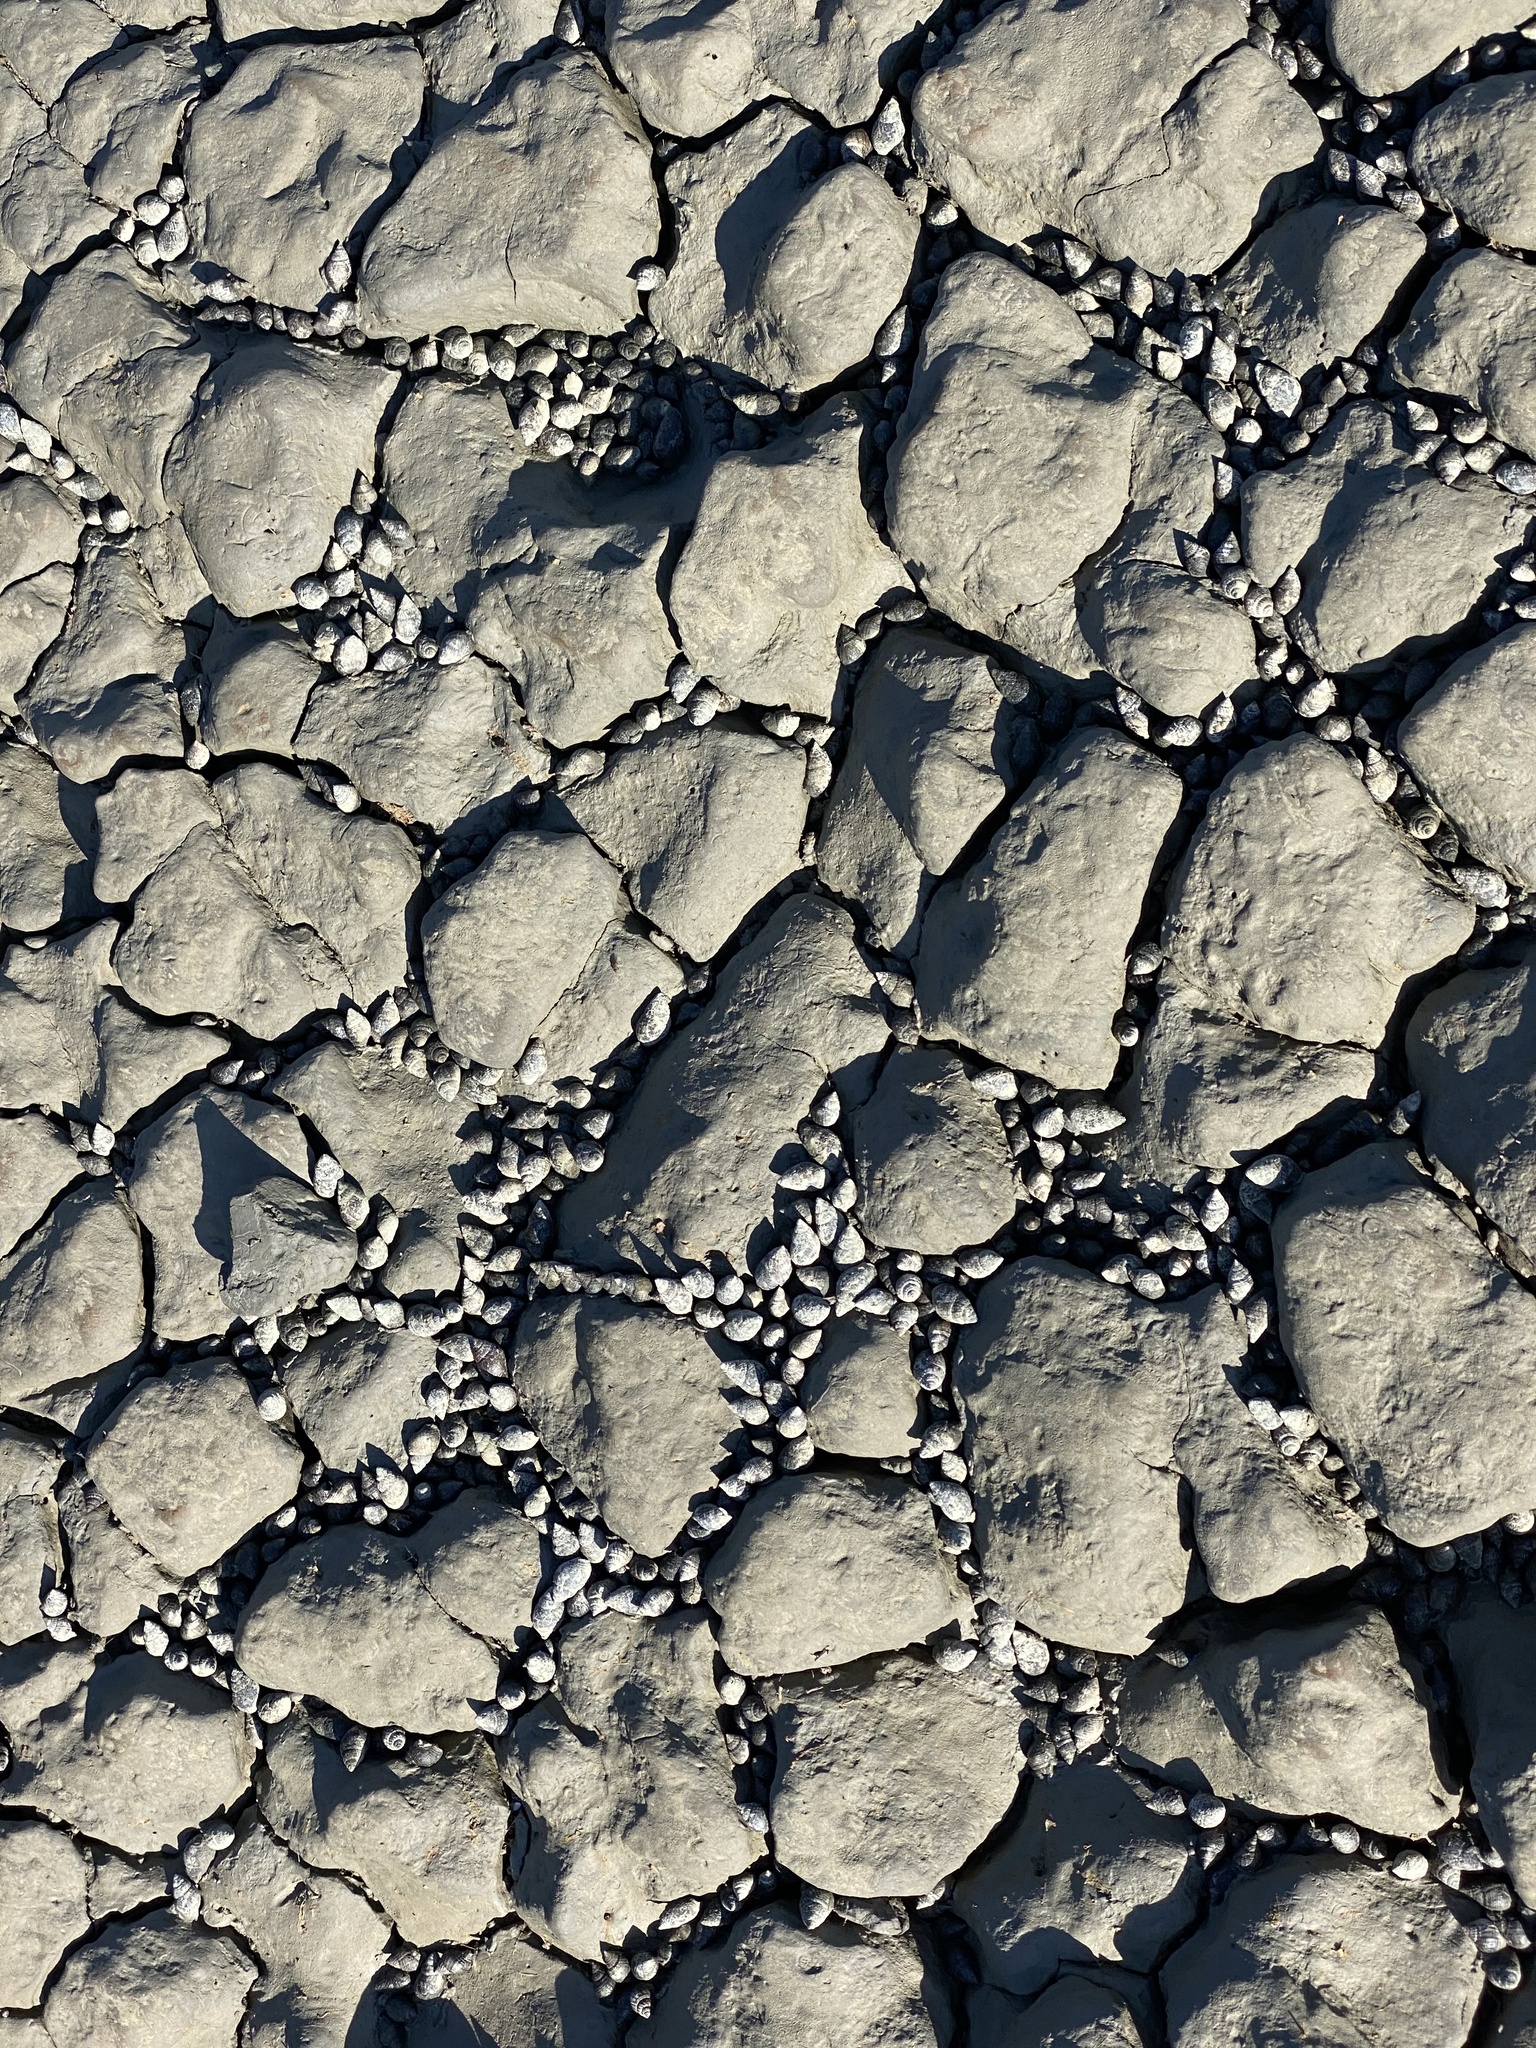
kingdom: Animalia
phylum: Mollusca
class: Gastropoda
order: Neogastropoda
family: Nassariidae
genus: Ilyanassa
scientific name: Ilyanassa obsoleta
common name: Eastern mudsnail
